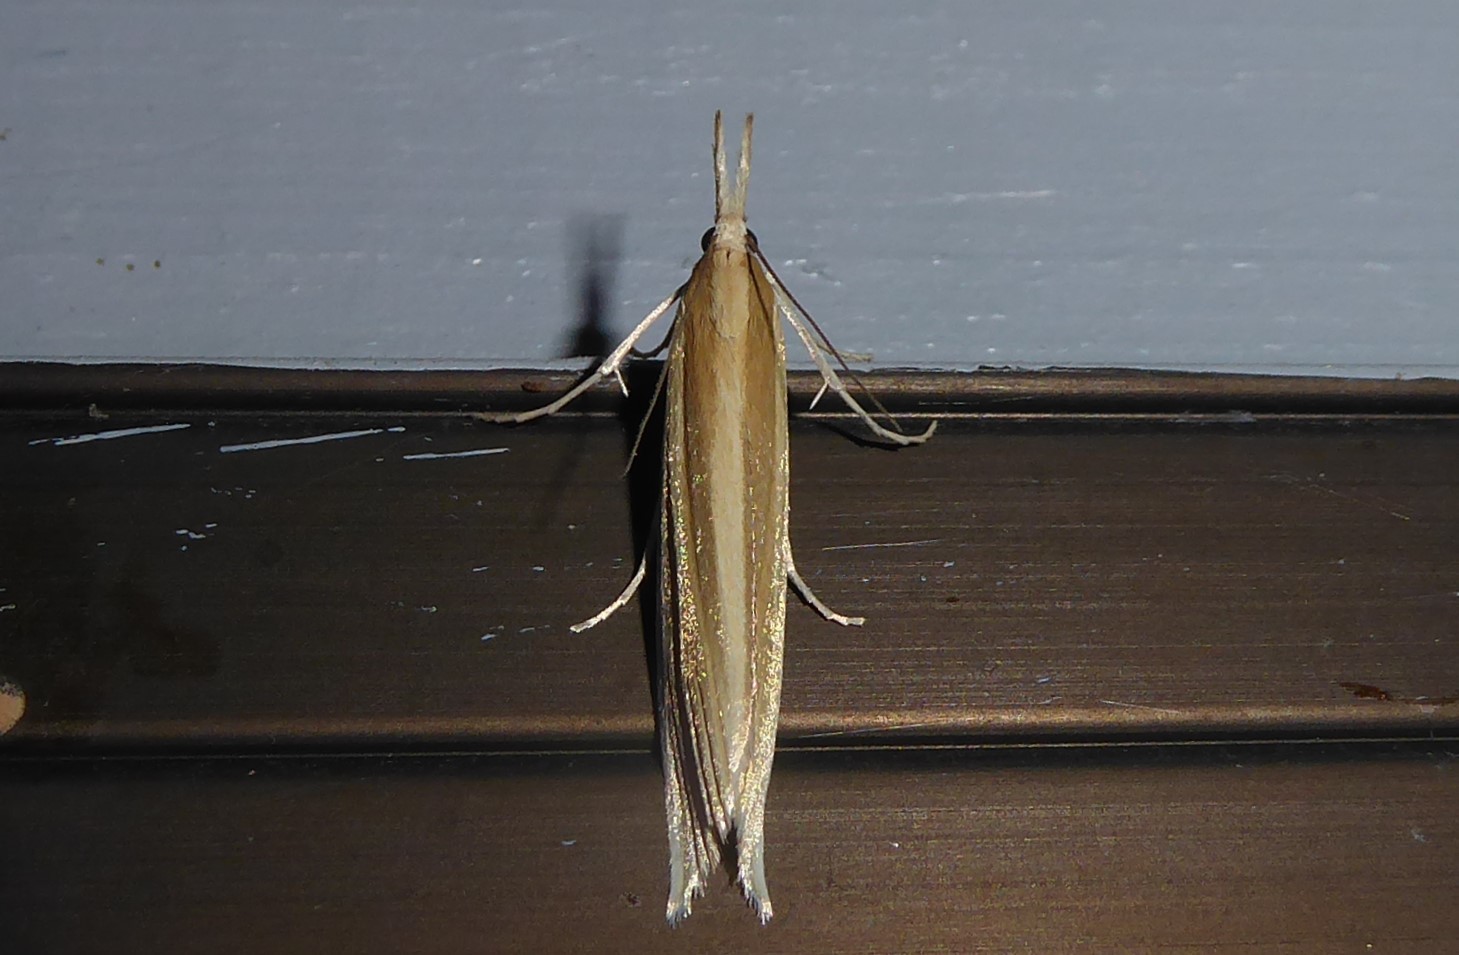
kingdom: Animalia
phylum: Arthropoda
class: Insecta
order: Lepidoptera
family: Crambidae
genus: Orocrambus
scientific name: Orocrambus angustipennis
